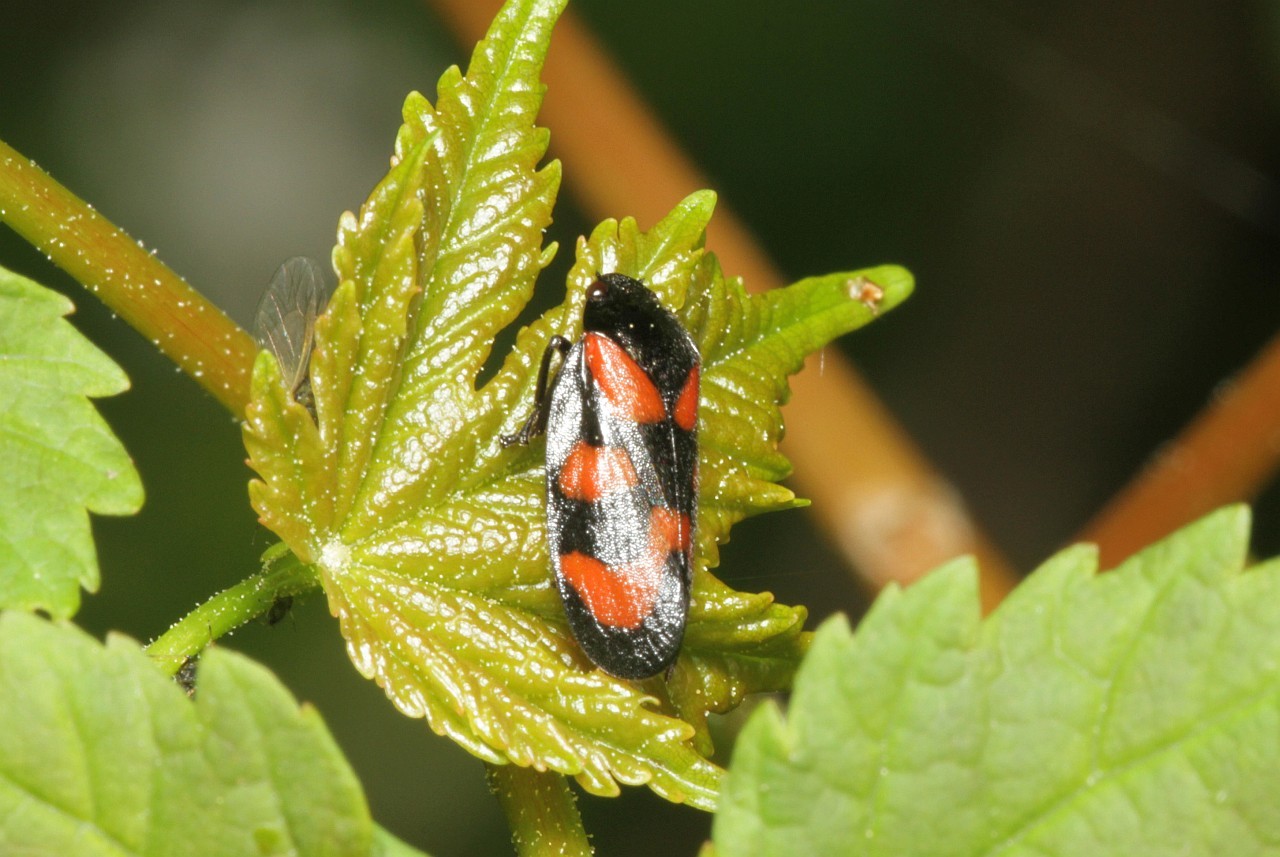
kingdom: Animalia
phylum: Arthropoda
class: Insecta
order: Hemiptera
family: Cercopidae
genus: Cercopis
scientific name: Cercopis vulnerata
